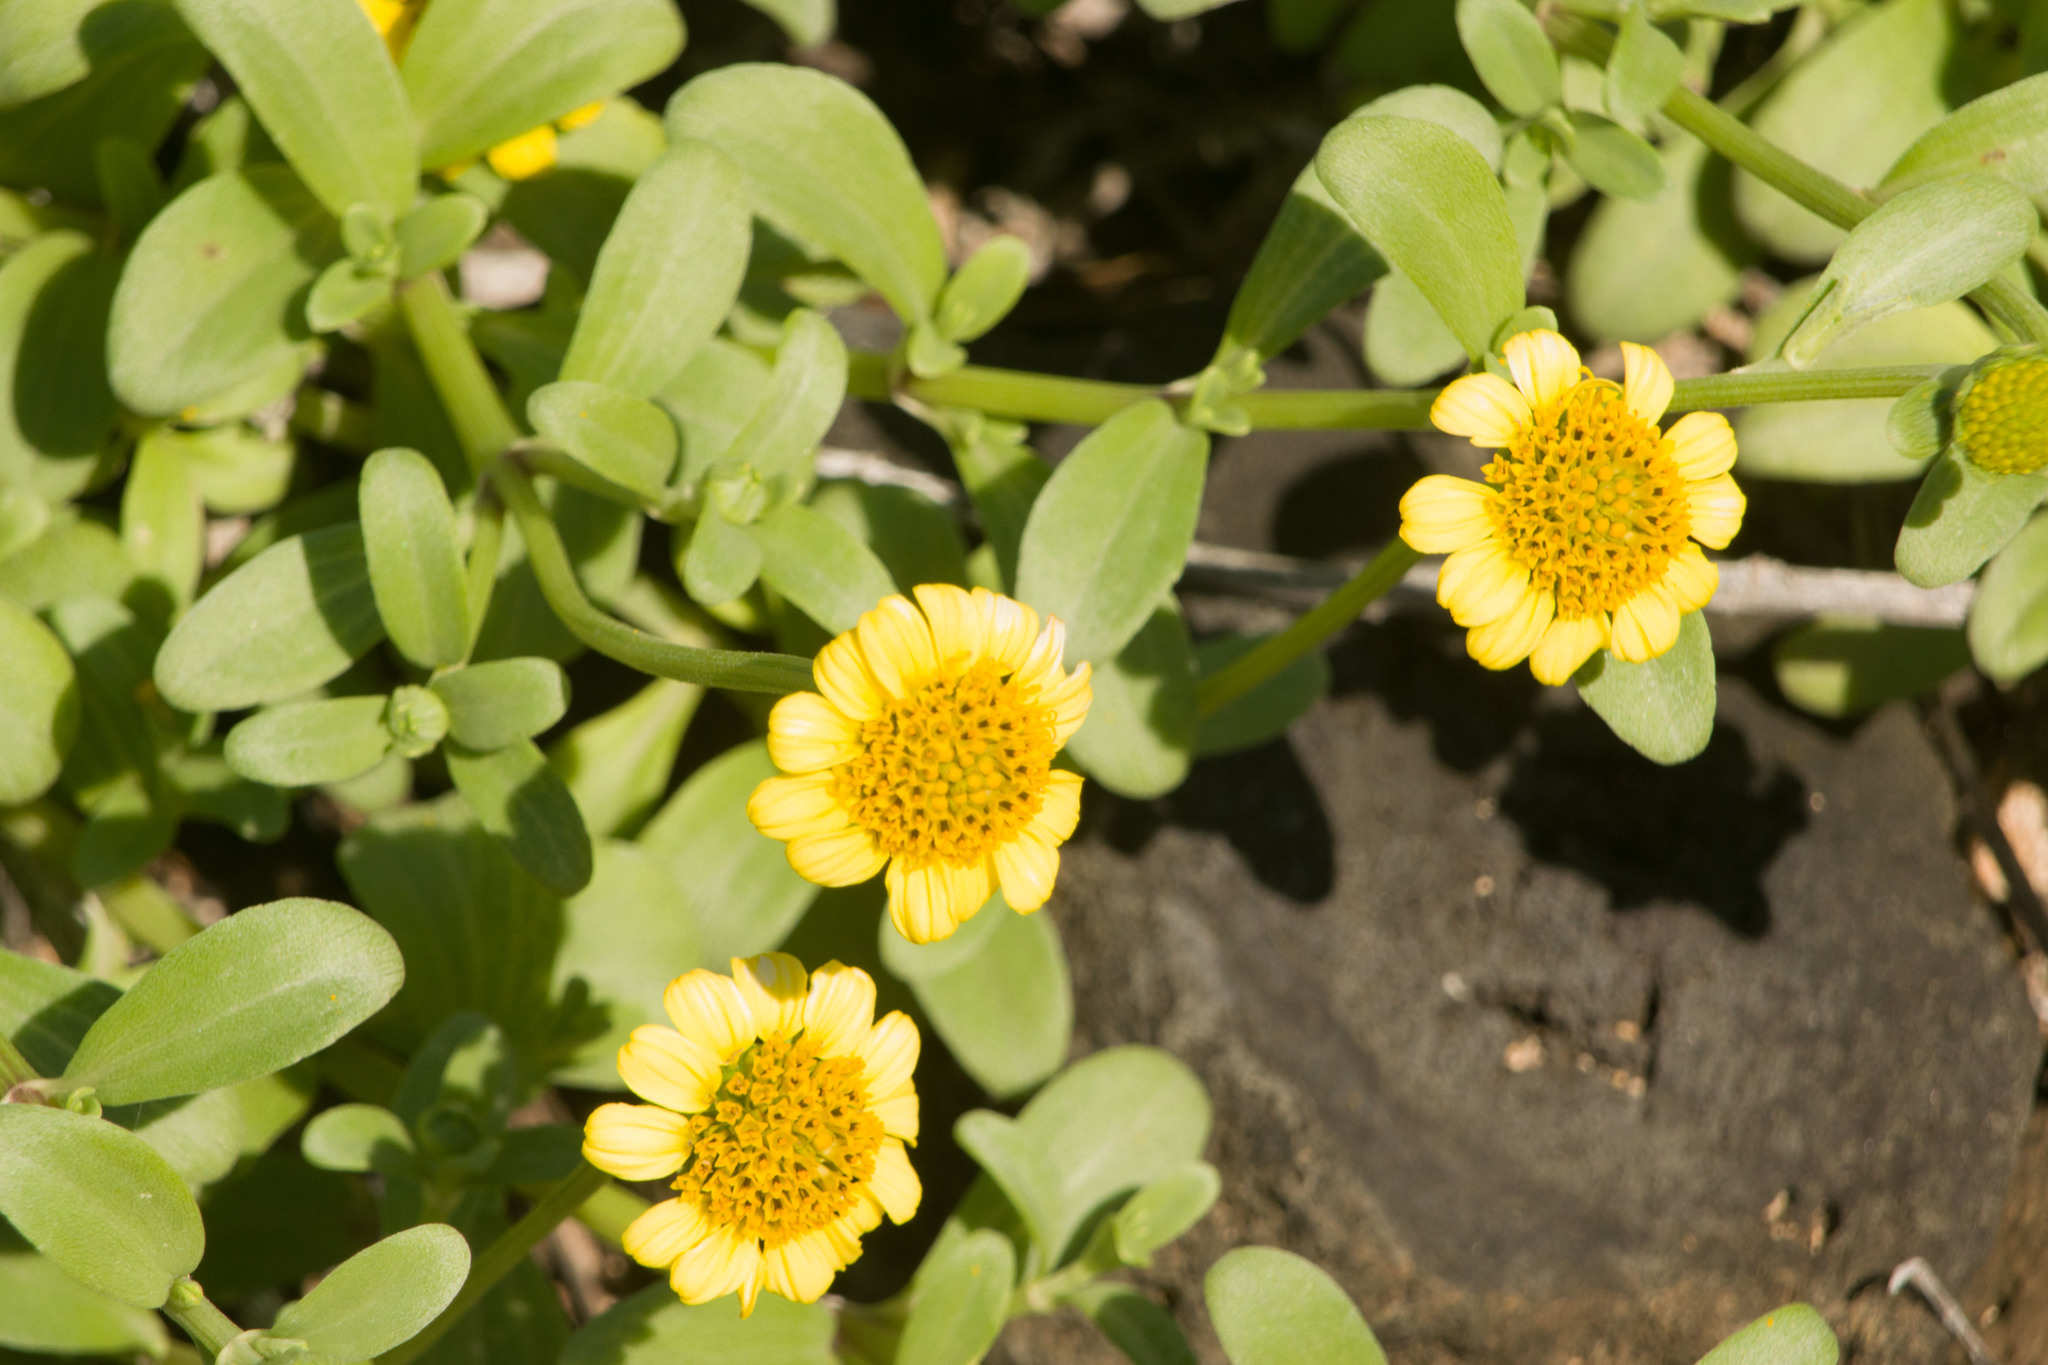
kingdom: Plantae
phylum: Tracheophyta
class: Magnoliopsida
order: Asterales
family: Asteraceae
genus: Lipochaeta
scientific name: Lipochaeta integrifolia
